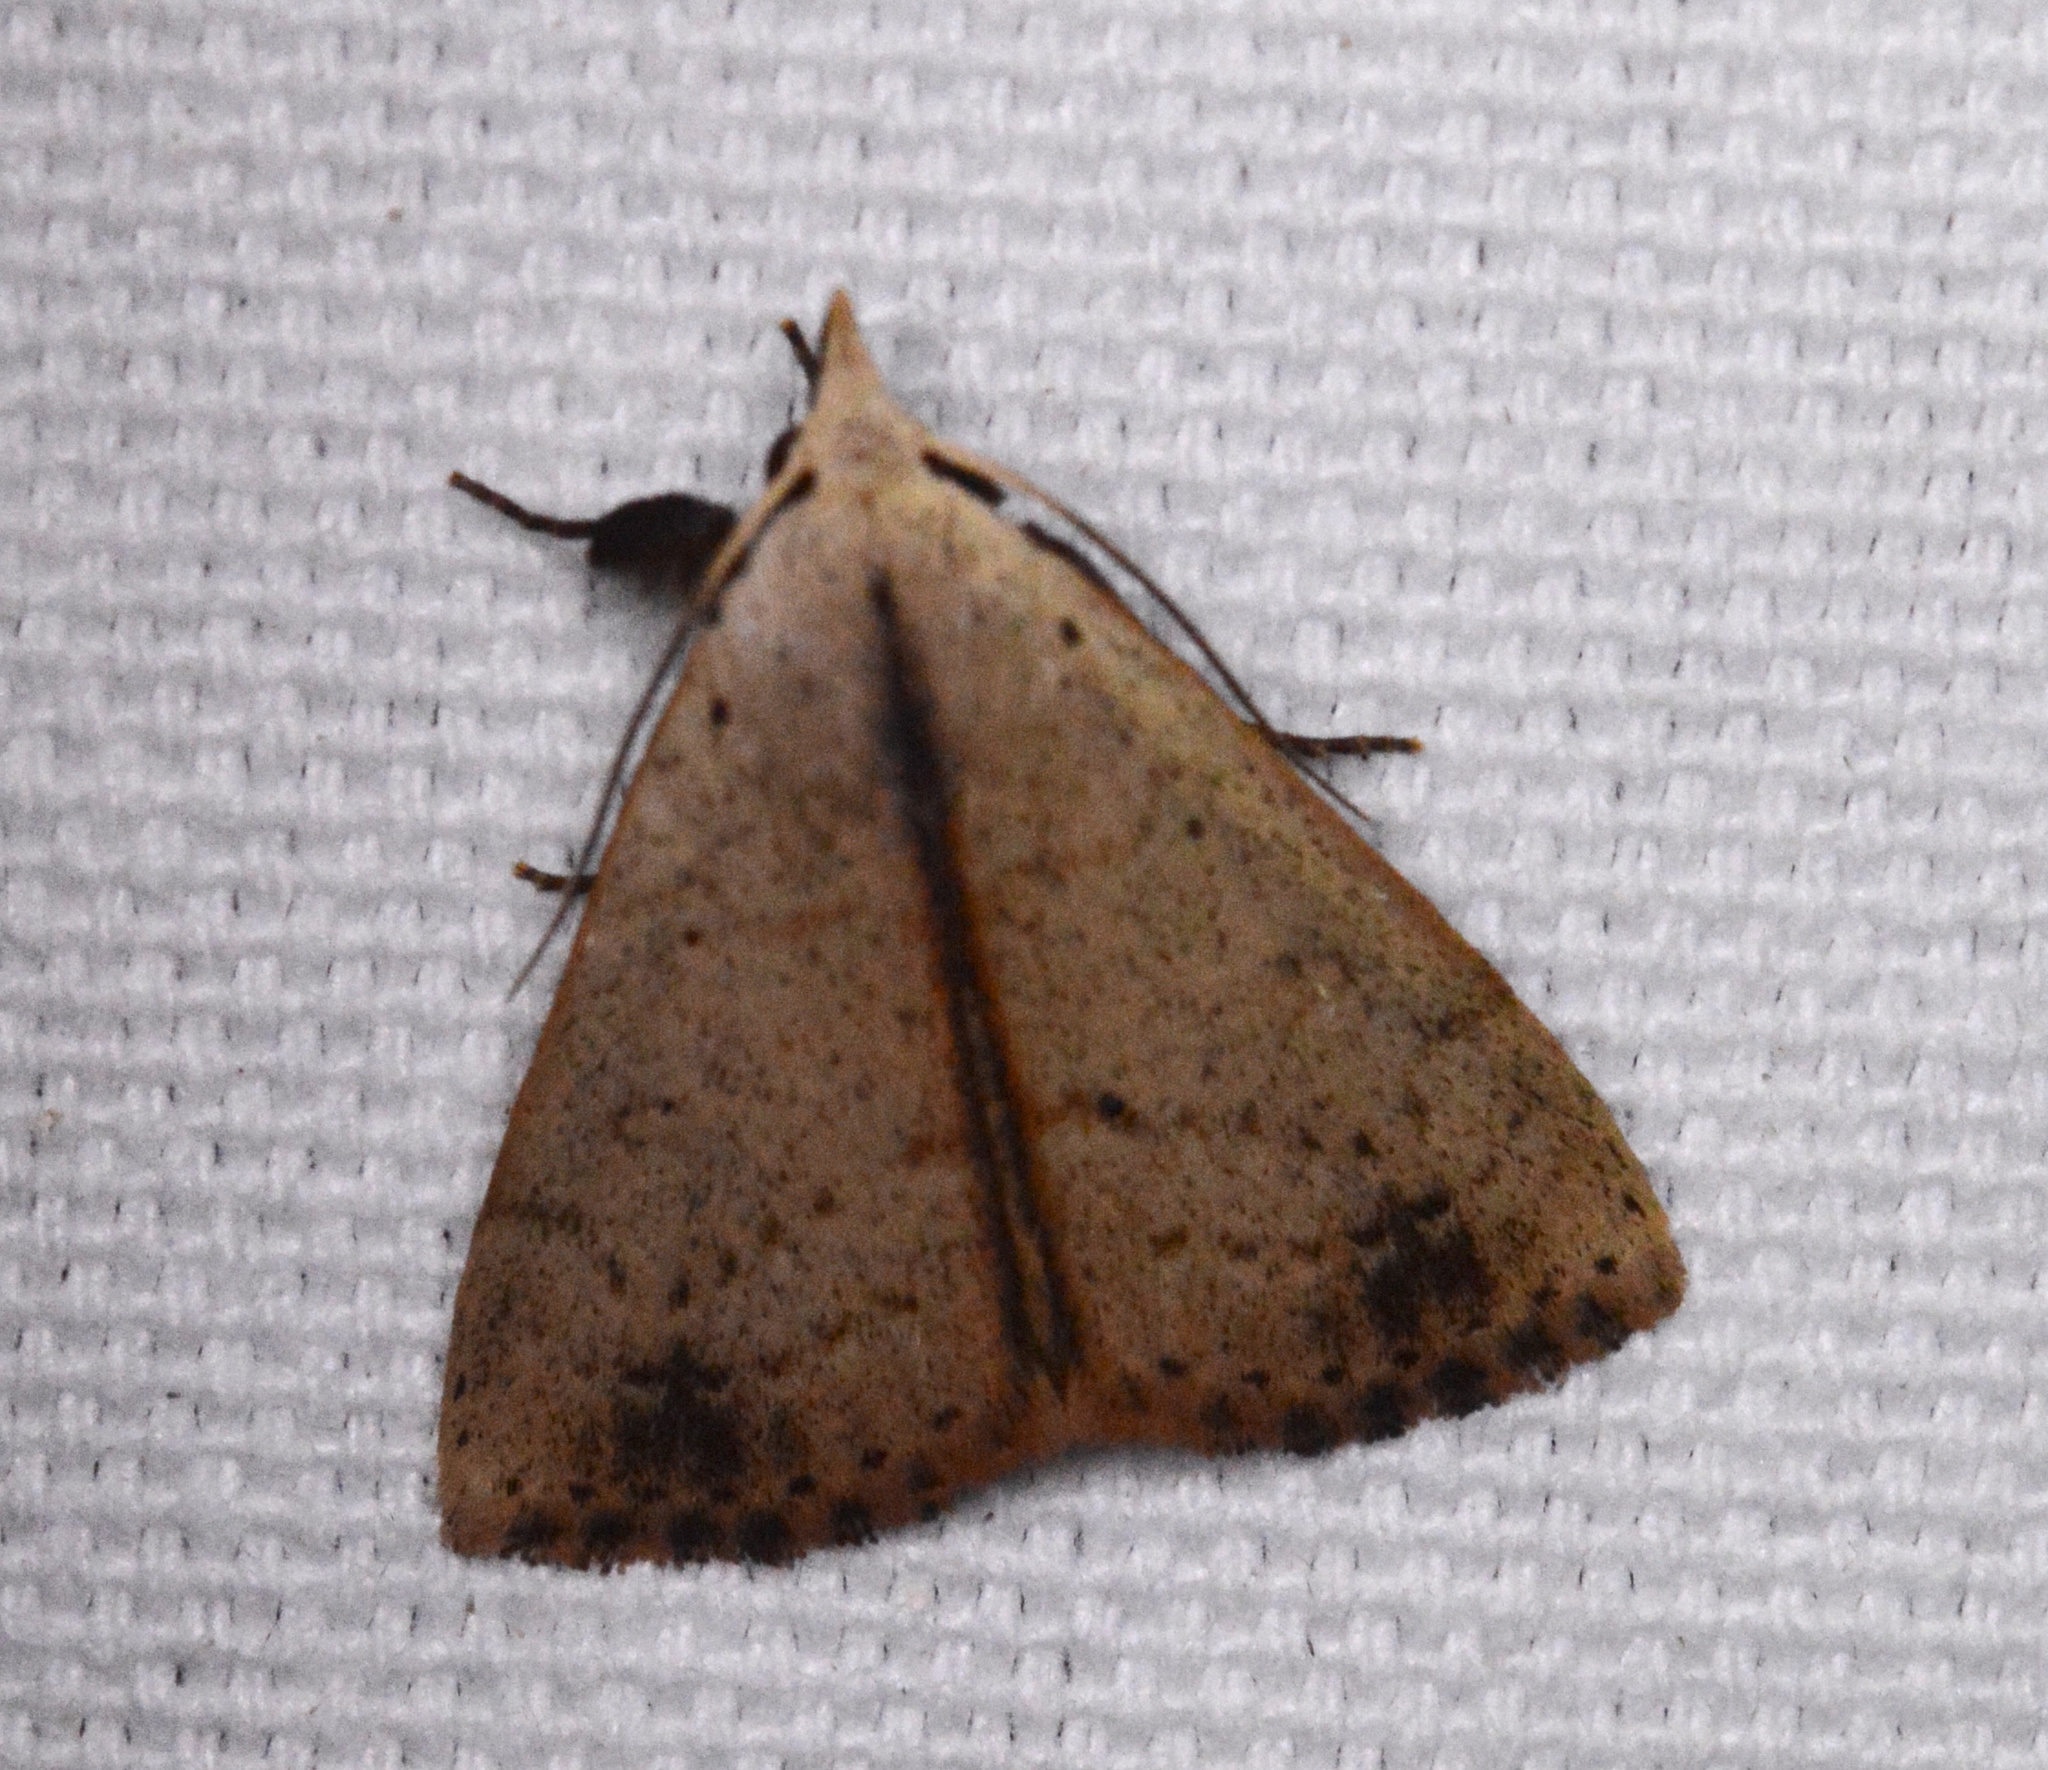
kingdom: Animalia
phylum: Arthropoda
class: Insecta
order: Lepidoptera
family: Erebidae
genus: Scolecocampa
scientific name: Scolecocampa liburna
